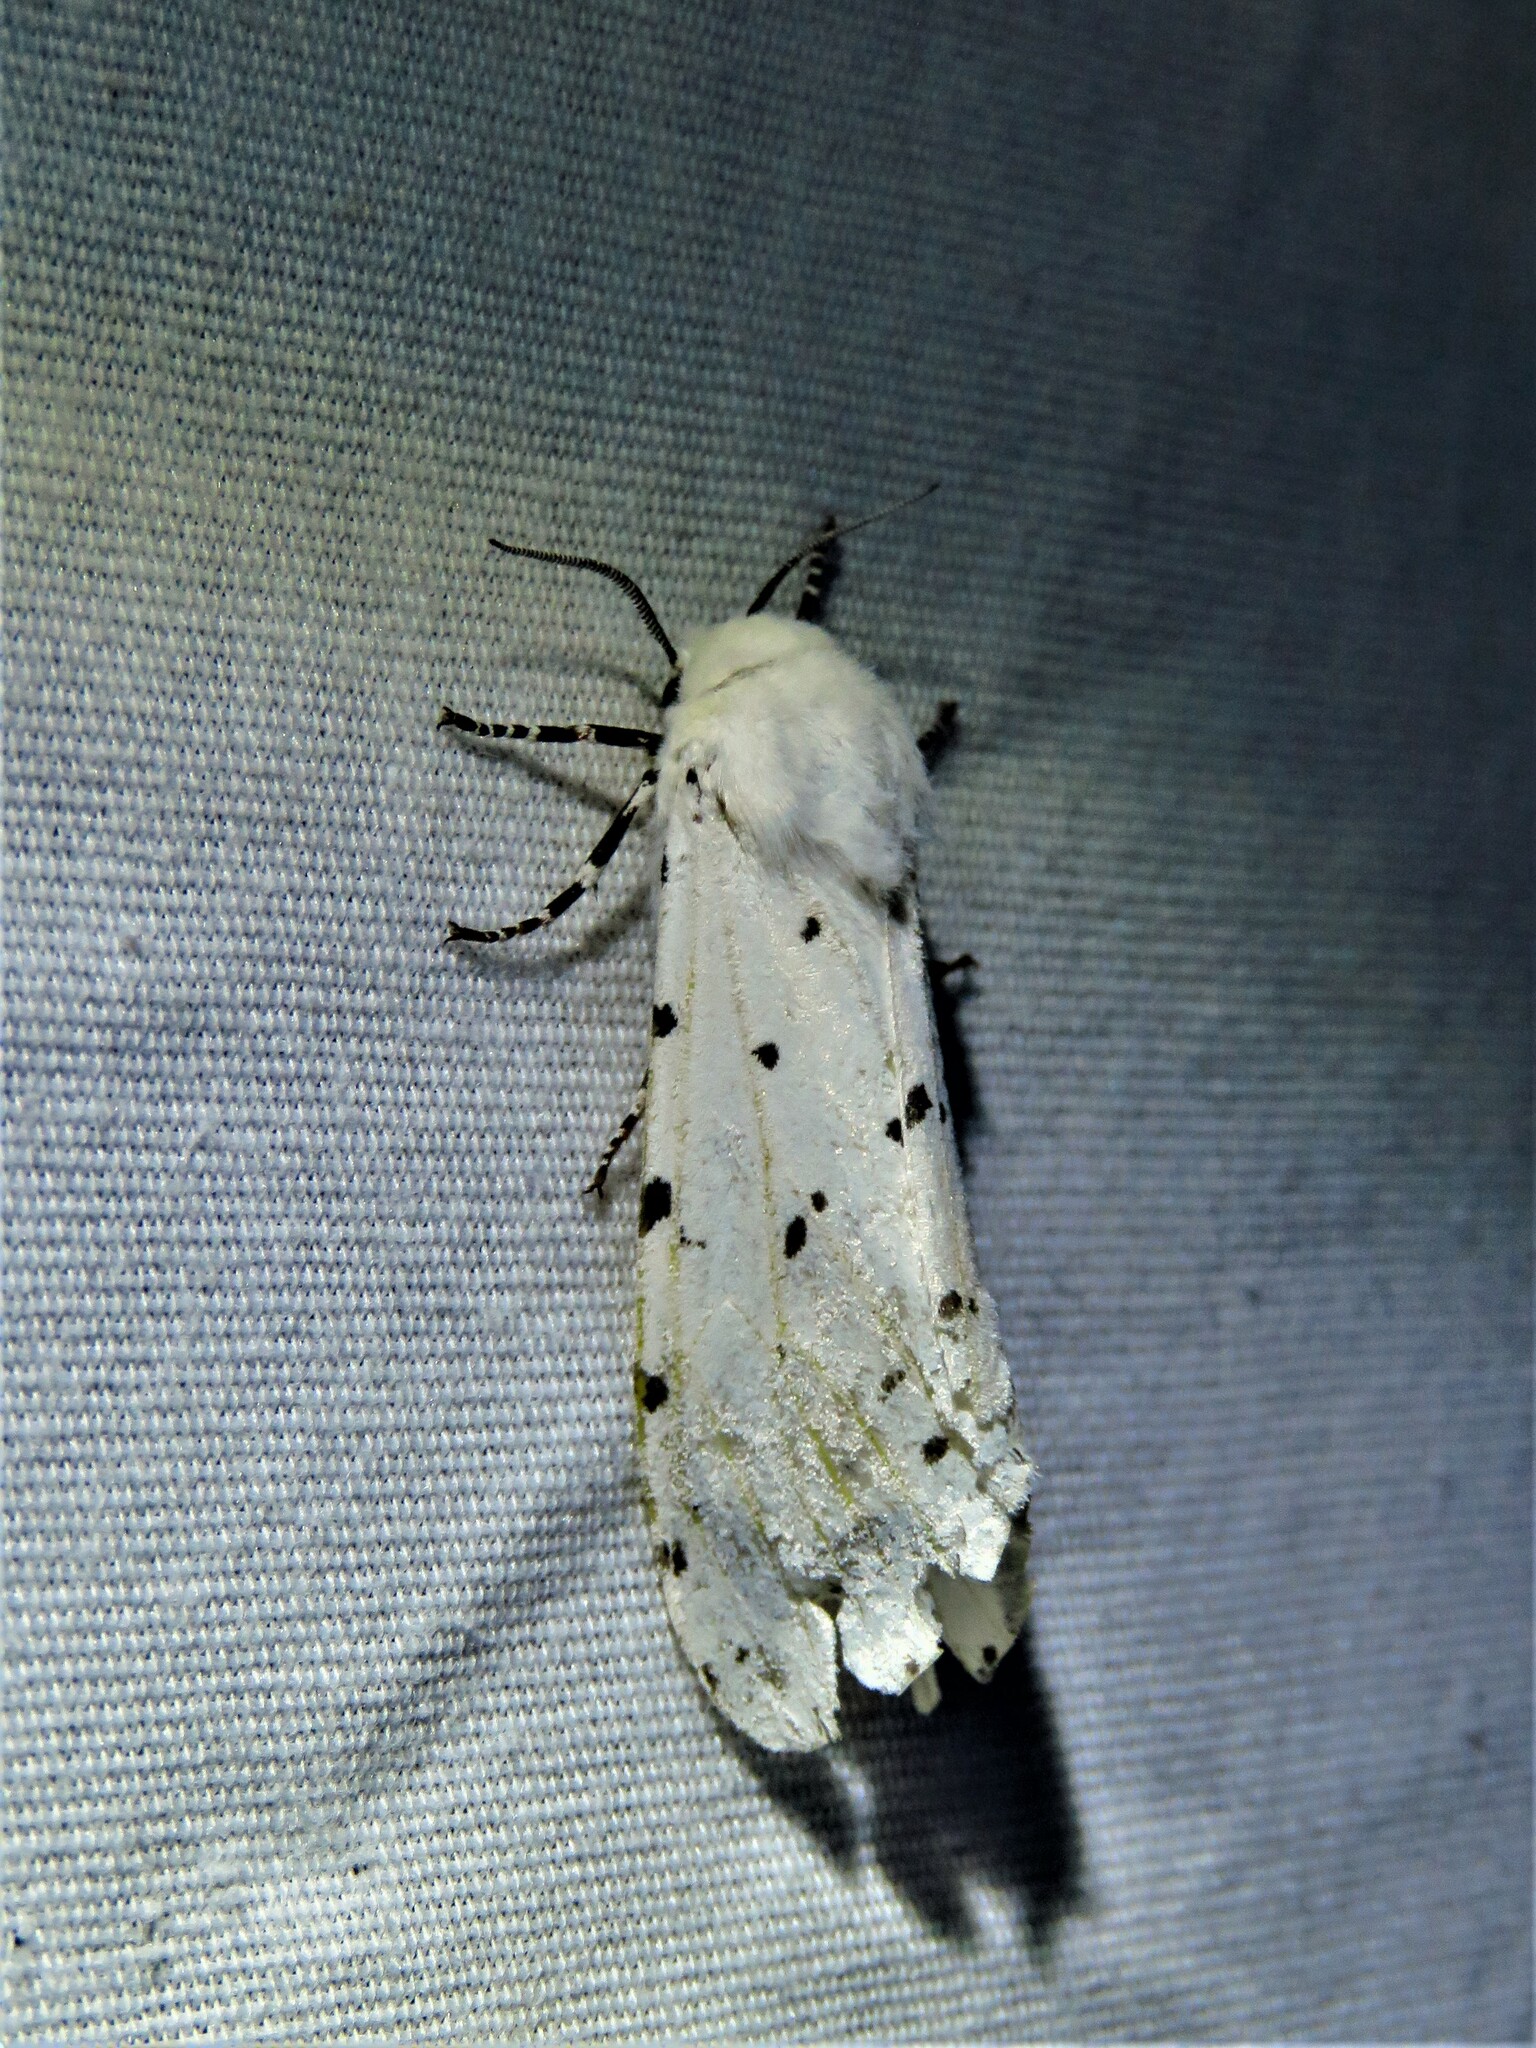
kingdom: Animalia
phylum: Arthropoda
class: Insecta
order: Lepidoptera
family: Erebidae
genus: Estigmene
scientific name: Estigmene acrea
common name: Salt marsh moth
